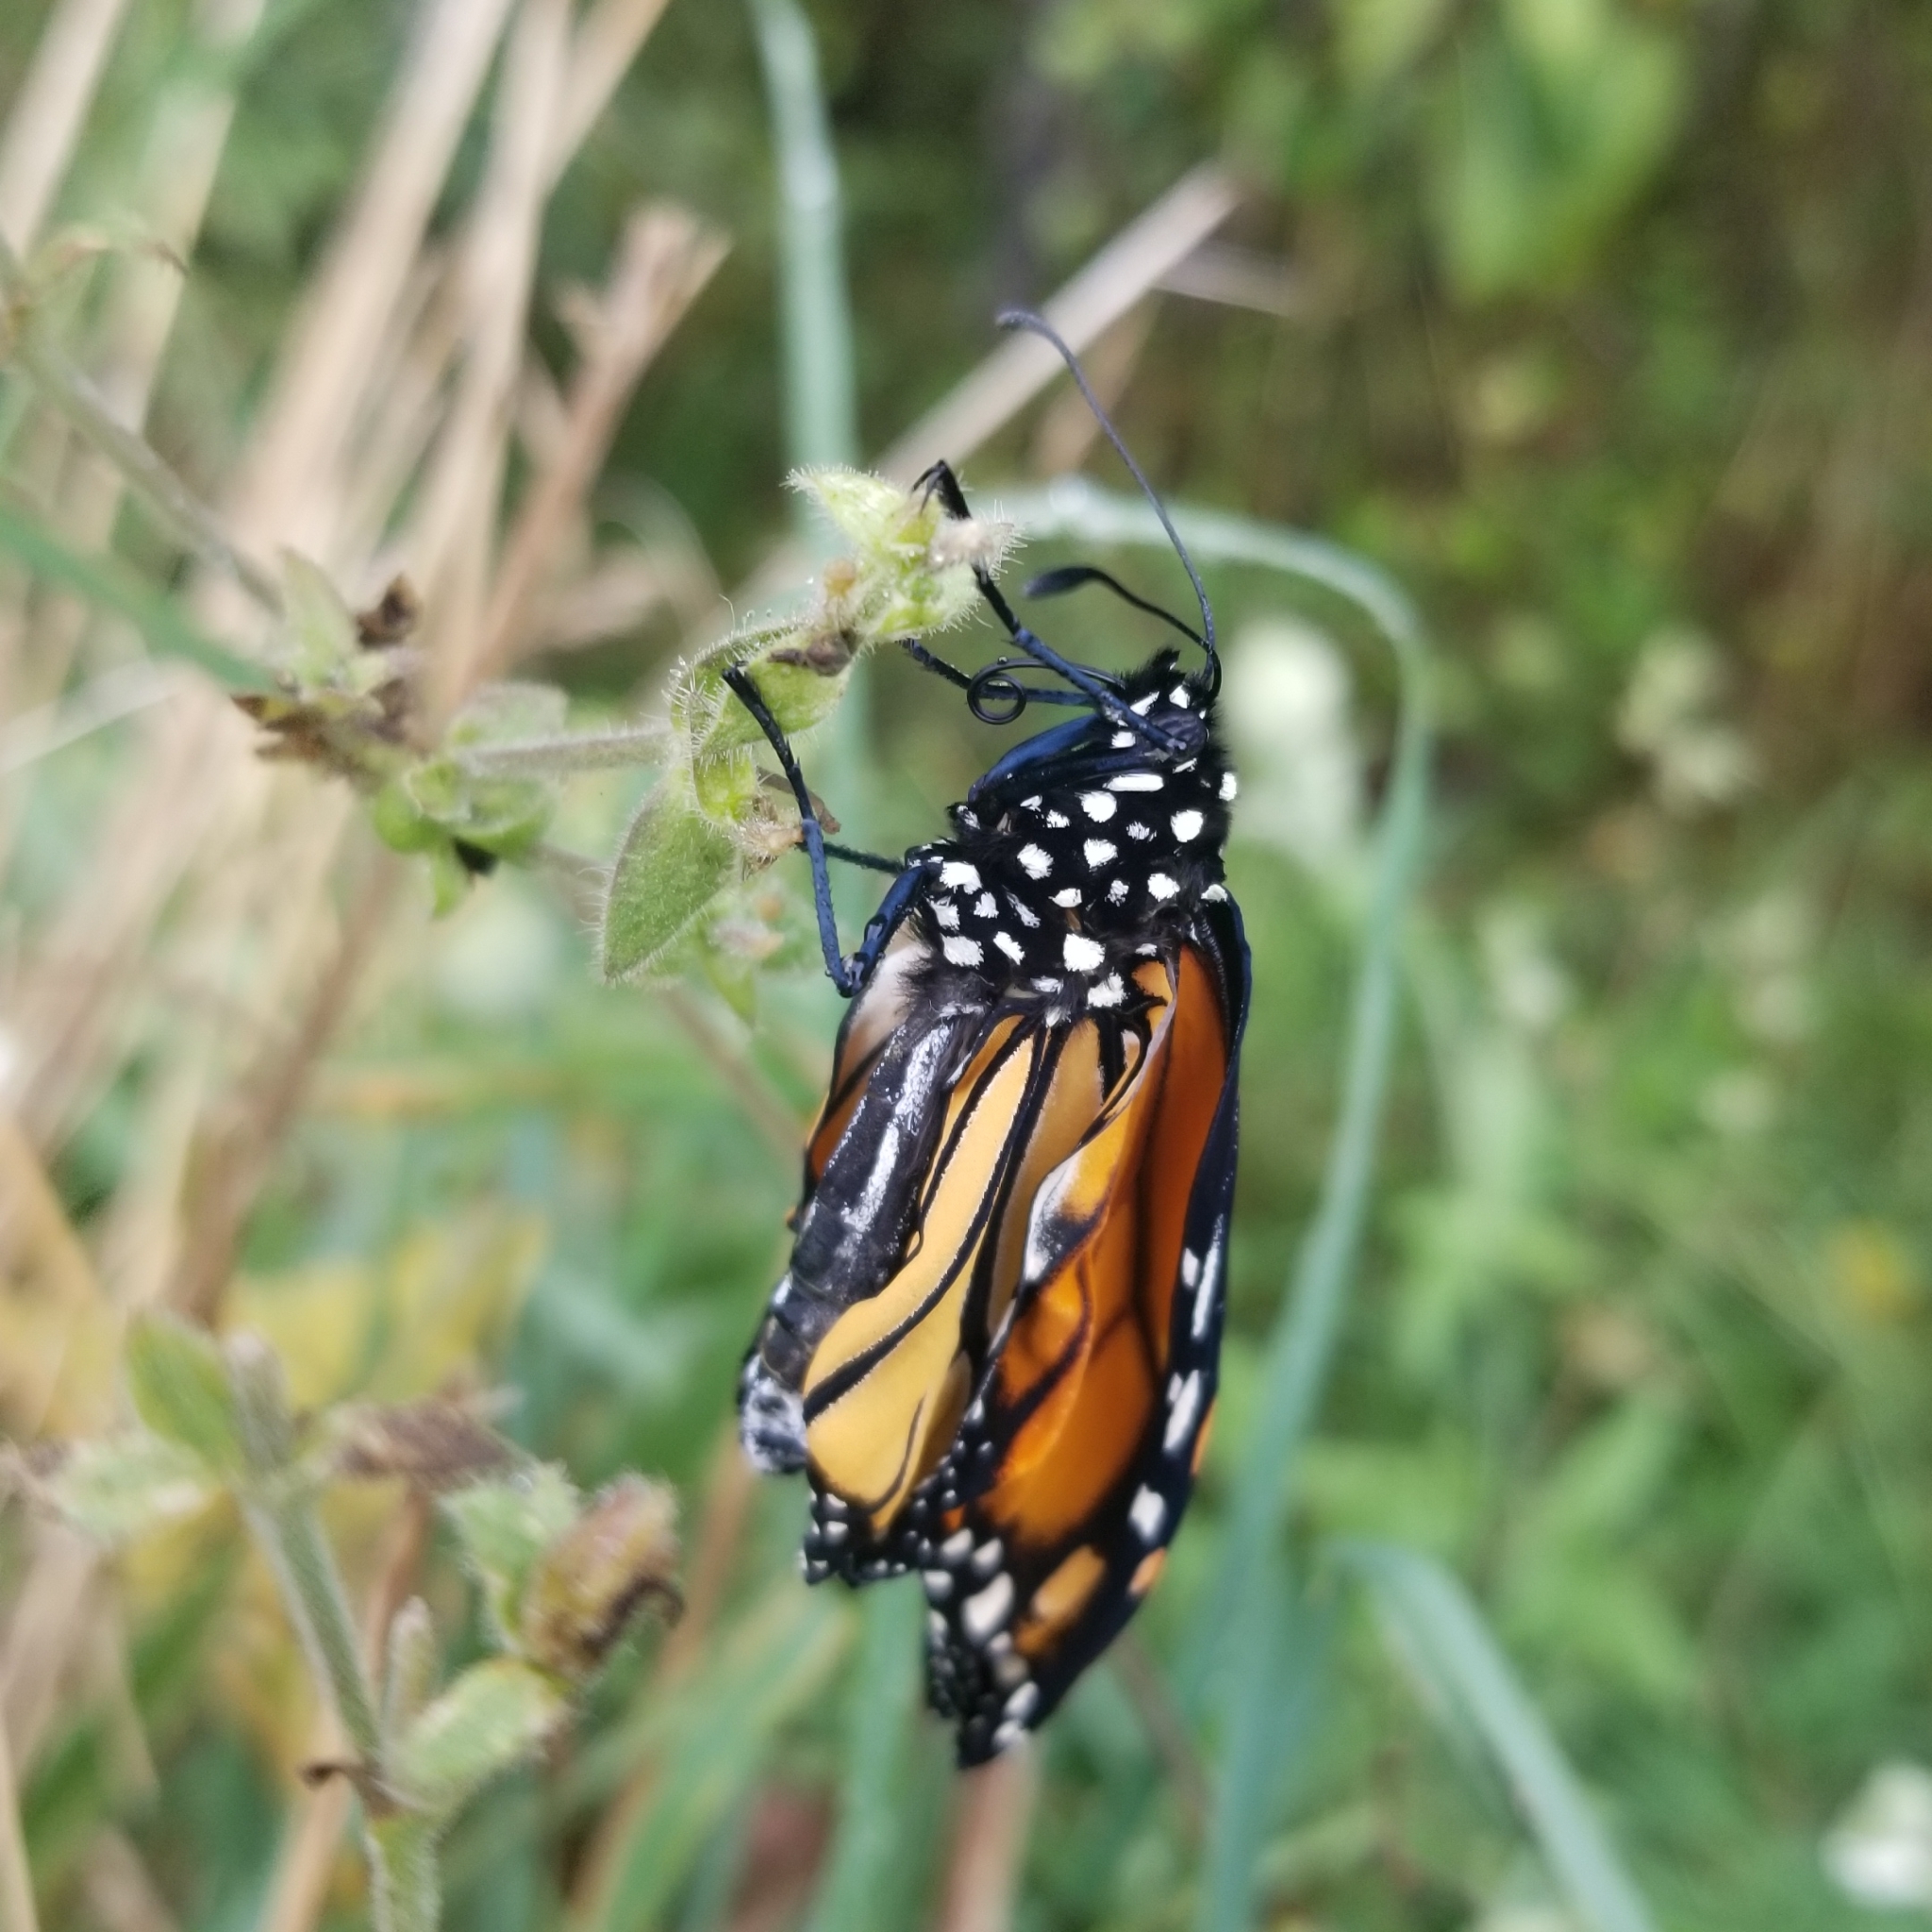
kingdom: Animalia
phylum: Arthropoda
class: Insecta
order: Lepidoptera
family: Nymphalidae
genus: Danaus
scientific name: Danaus plexippus
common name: Monarch
